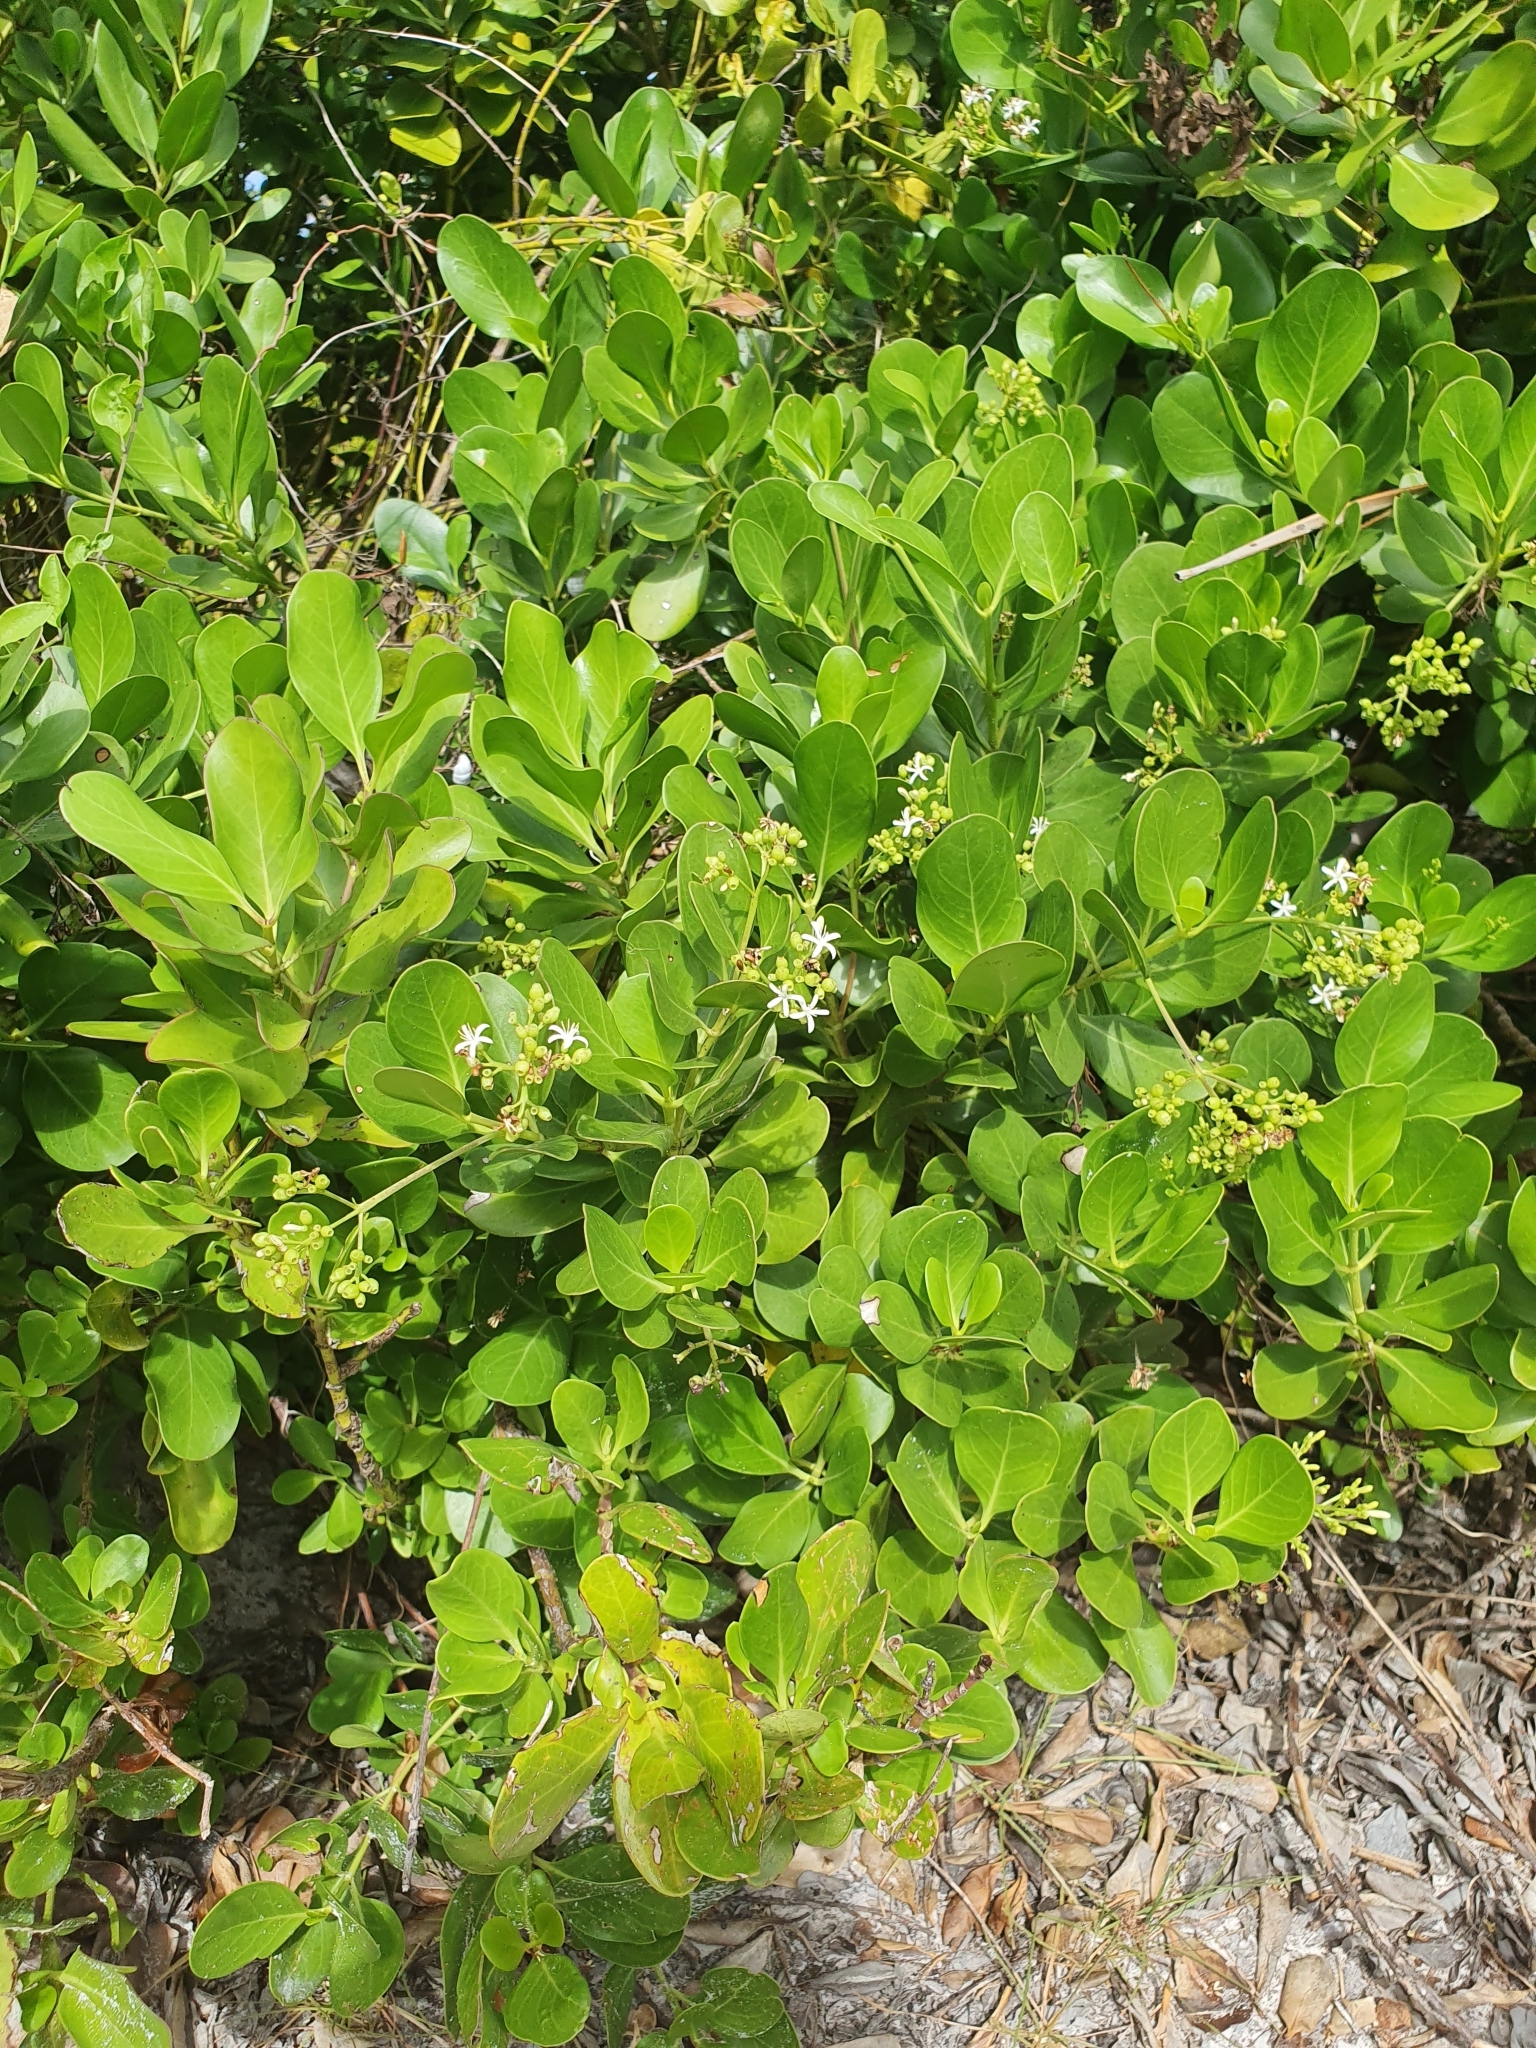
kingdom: Plantae
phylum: Tracheophyta
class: Magnoliopsida
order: Gentianales
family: Rubiaceae
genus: Erithalis
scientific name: Erithalis fruticosa
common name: Candlewood
